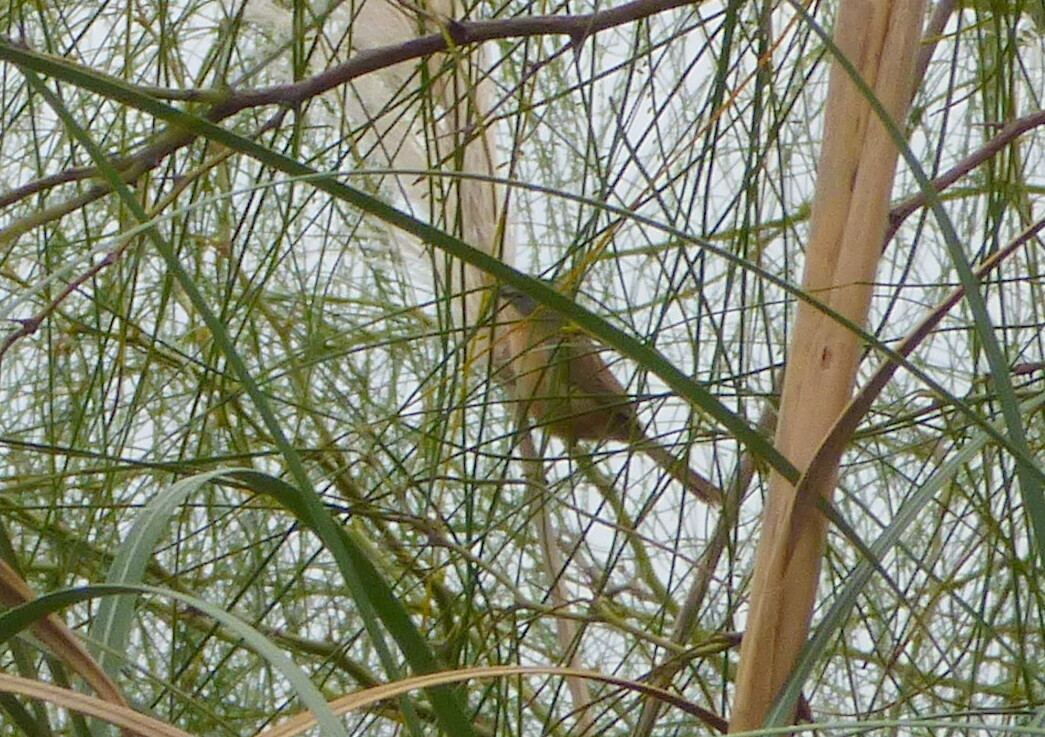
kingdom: Animalia
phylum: Chordata
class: Aves
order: Passeriformes
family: Thraupidae
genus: Donacospiza
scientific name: Donacospiza albifrons
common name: Long-tailed reed finch
